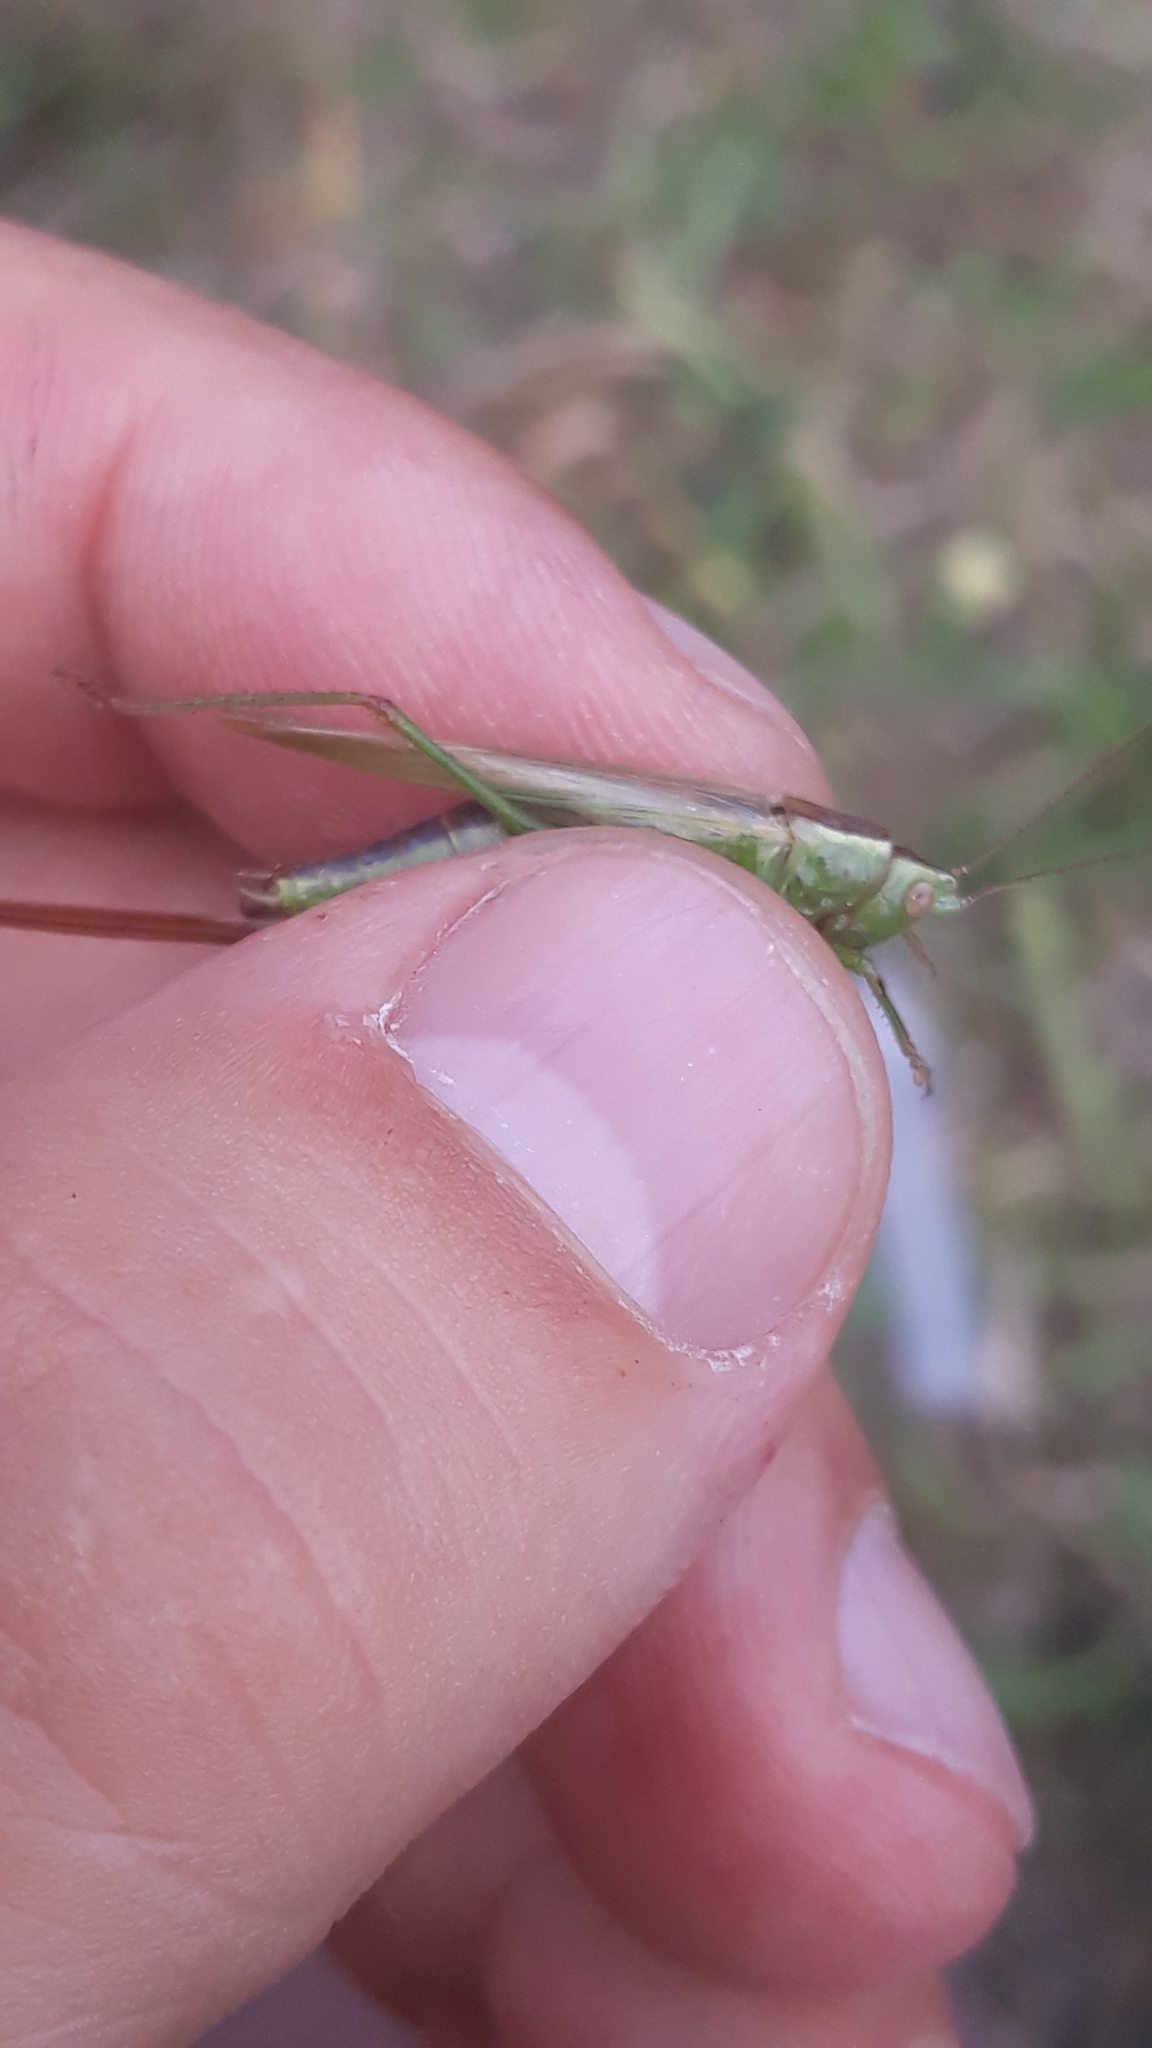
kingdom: Animalia
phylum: Arthropoda
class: Insecta
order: Orthoptera
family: Tettigoniidae
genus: Conocephalus
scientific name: Conocephalus fuscus
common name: Long-winged conehead
